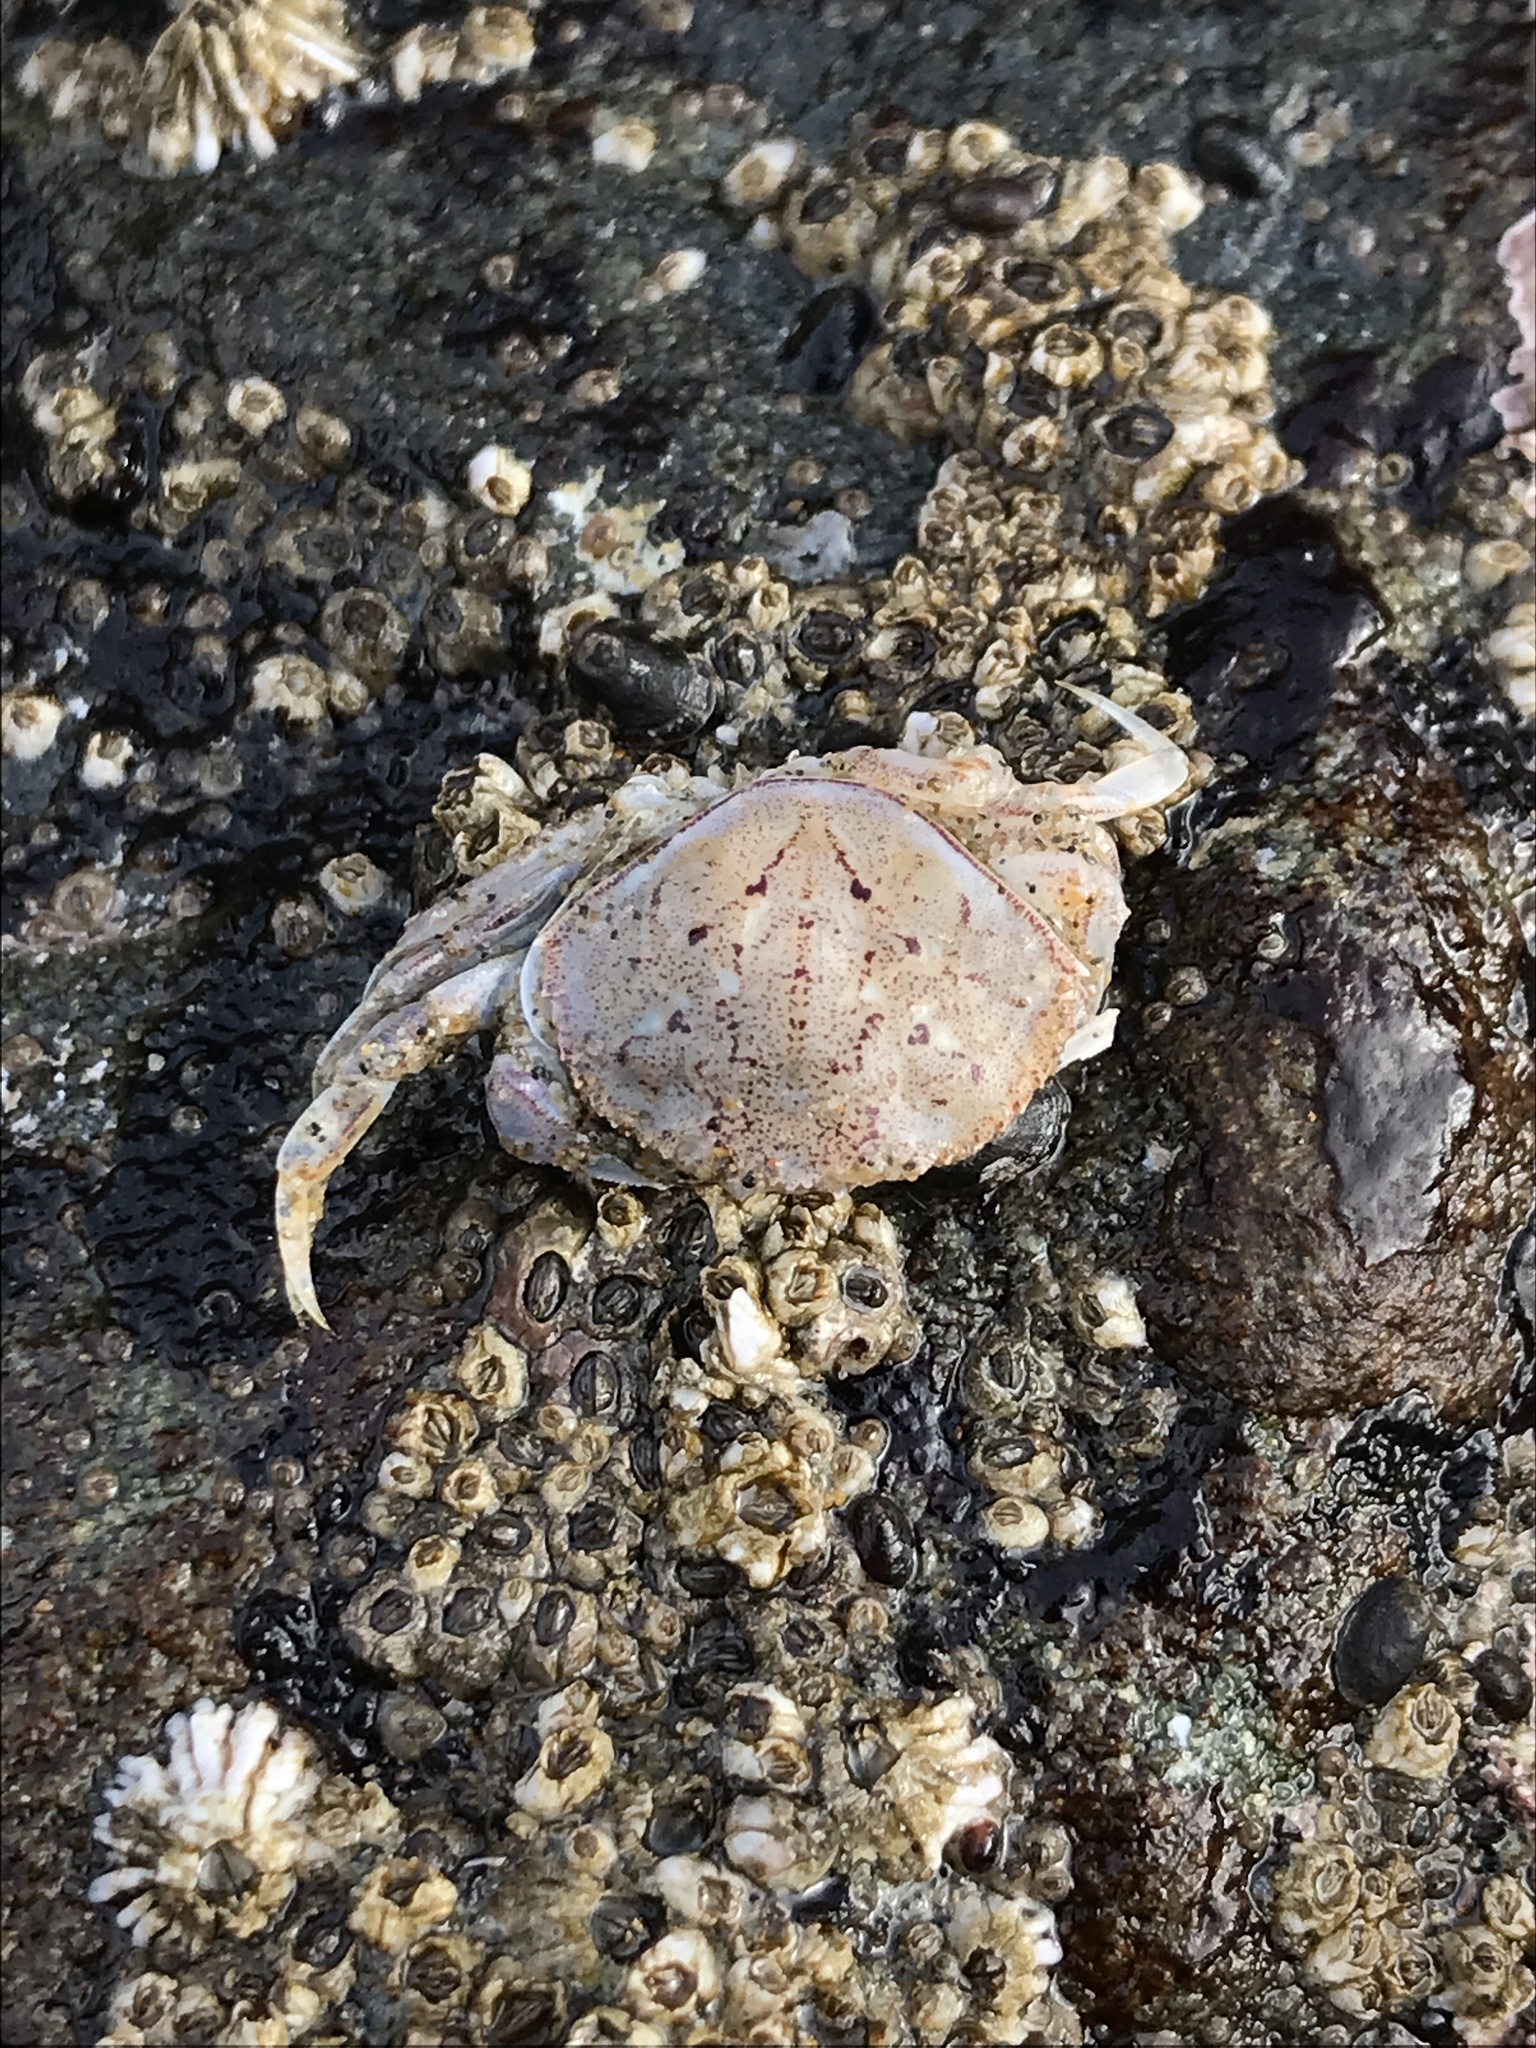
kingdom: Animalia
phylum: Arthropoda
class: Malacostraca
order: Decapoda
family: Cancridae
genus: Metacarcinus
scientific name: Metacarcinus magister
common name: Californian crab
